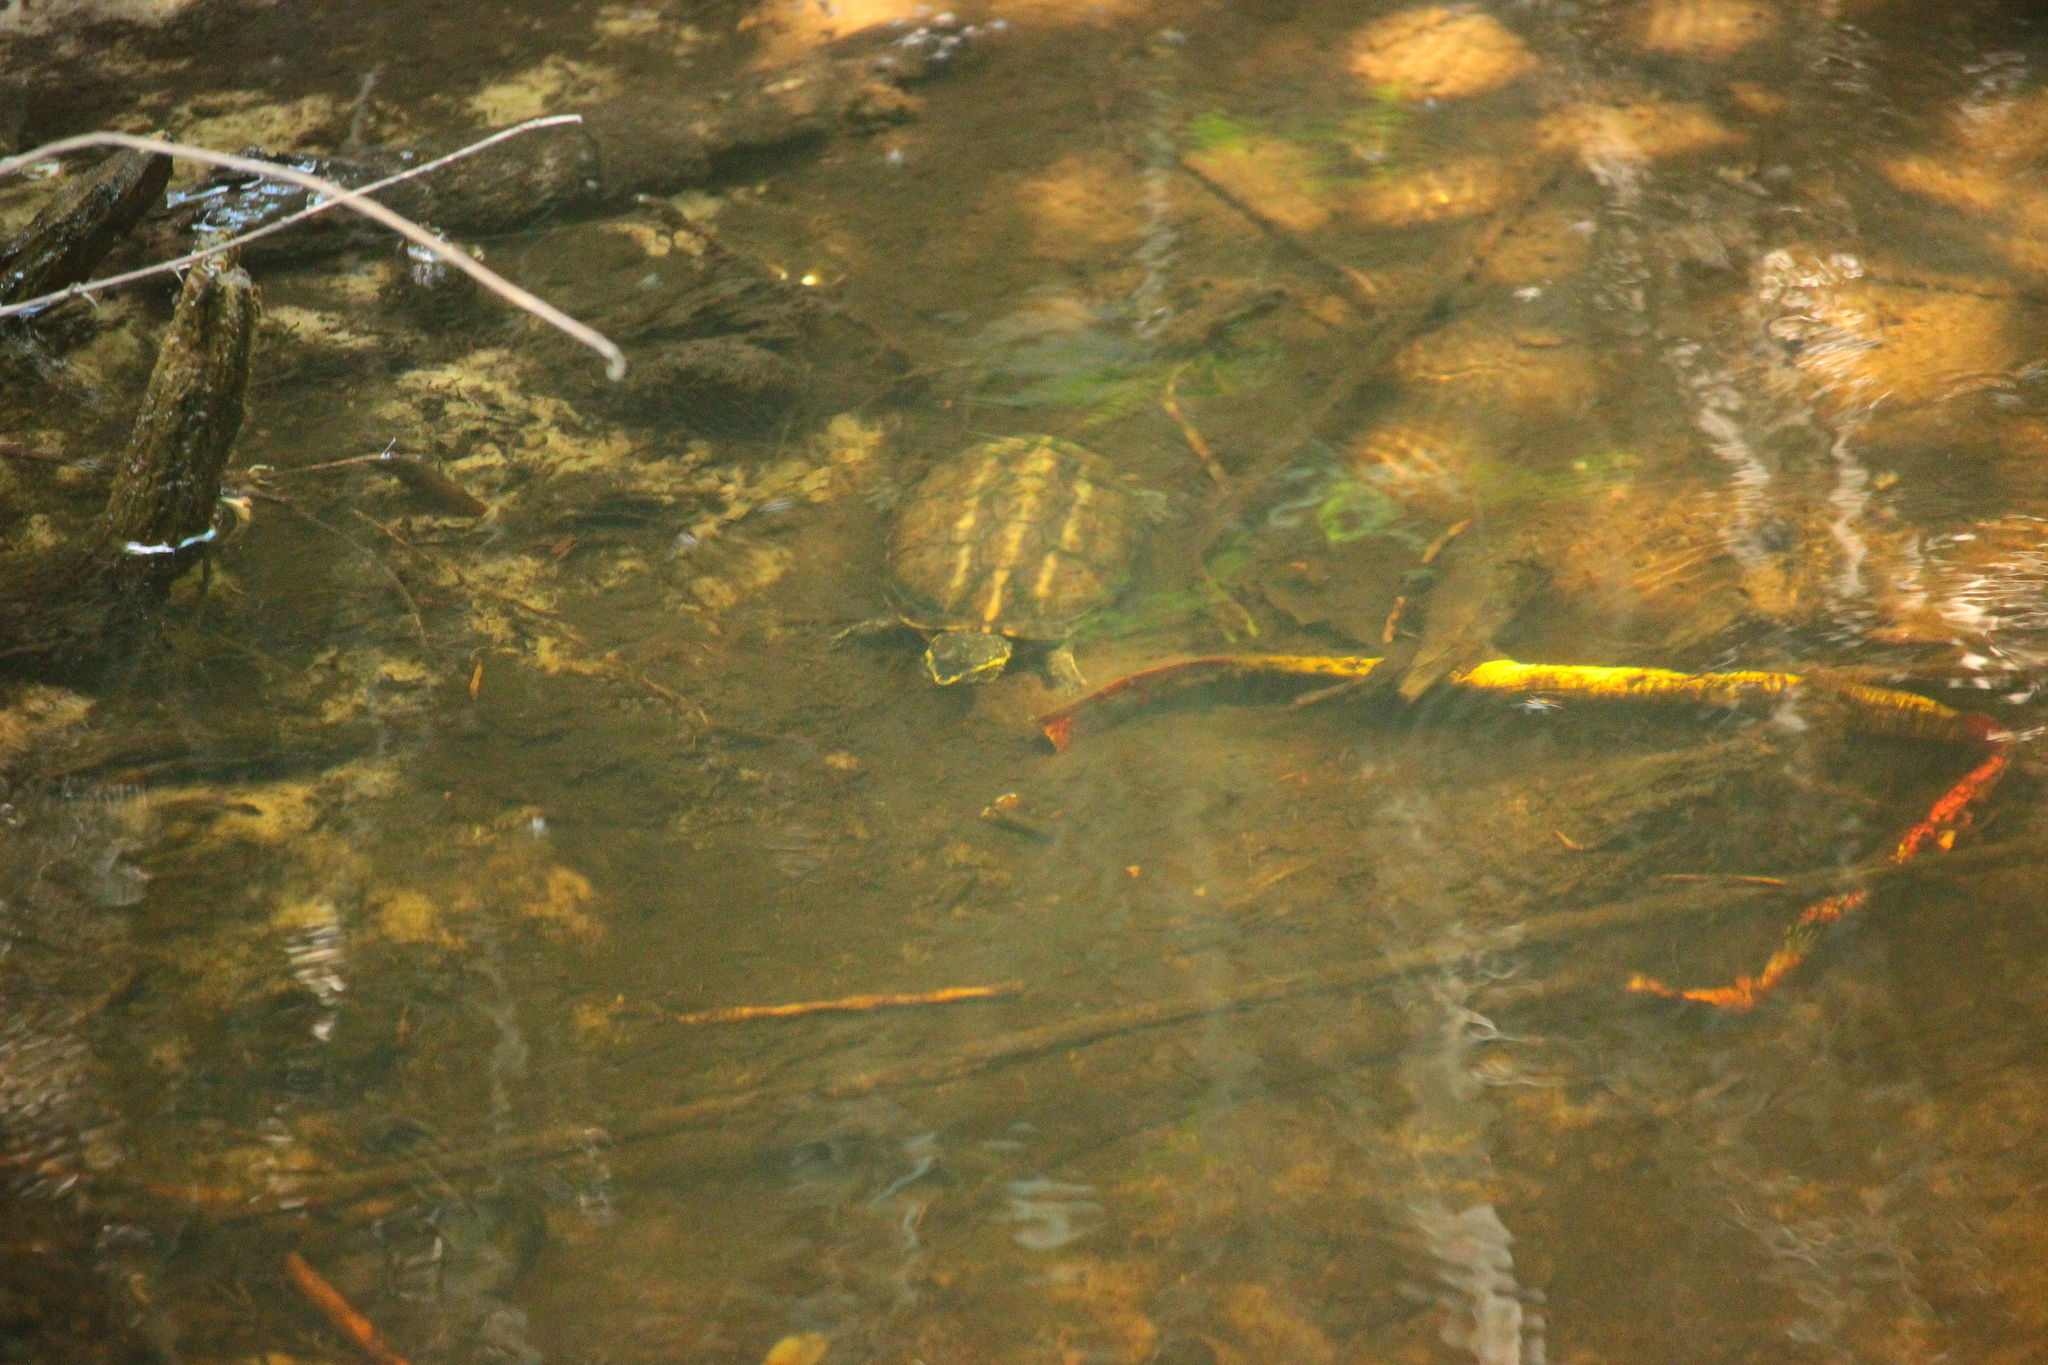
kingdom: Animalia
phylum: Chordata
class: Testudines
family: Kinosternidae
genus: Kinosternon
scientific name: Kinosternon baurii
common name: Striped mud turtle
